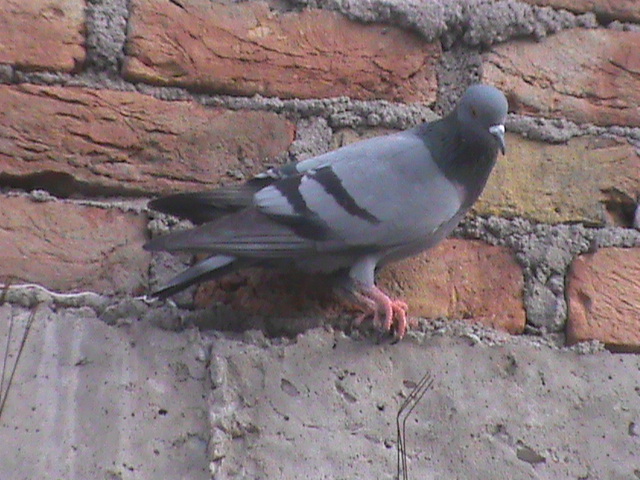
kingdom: Animalia
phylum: Chordata
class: Aves
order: Columbiformes
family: Columbidae
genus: Columba
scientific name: Columba livia
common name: Rock pigeon
